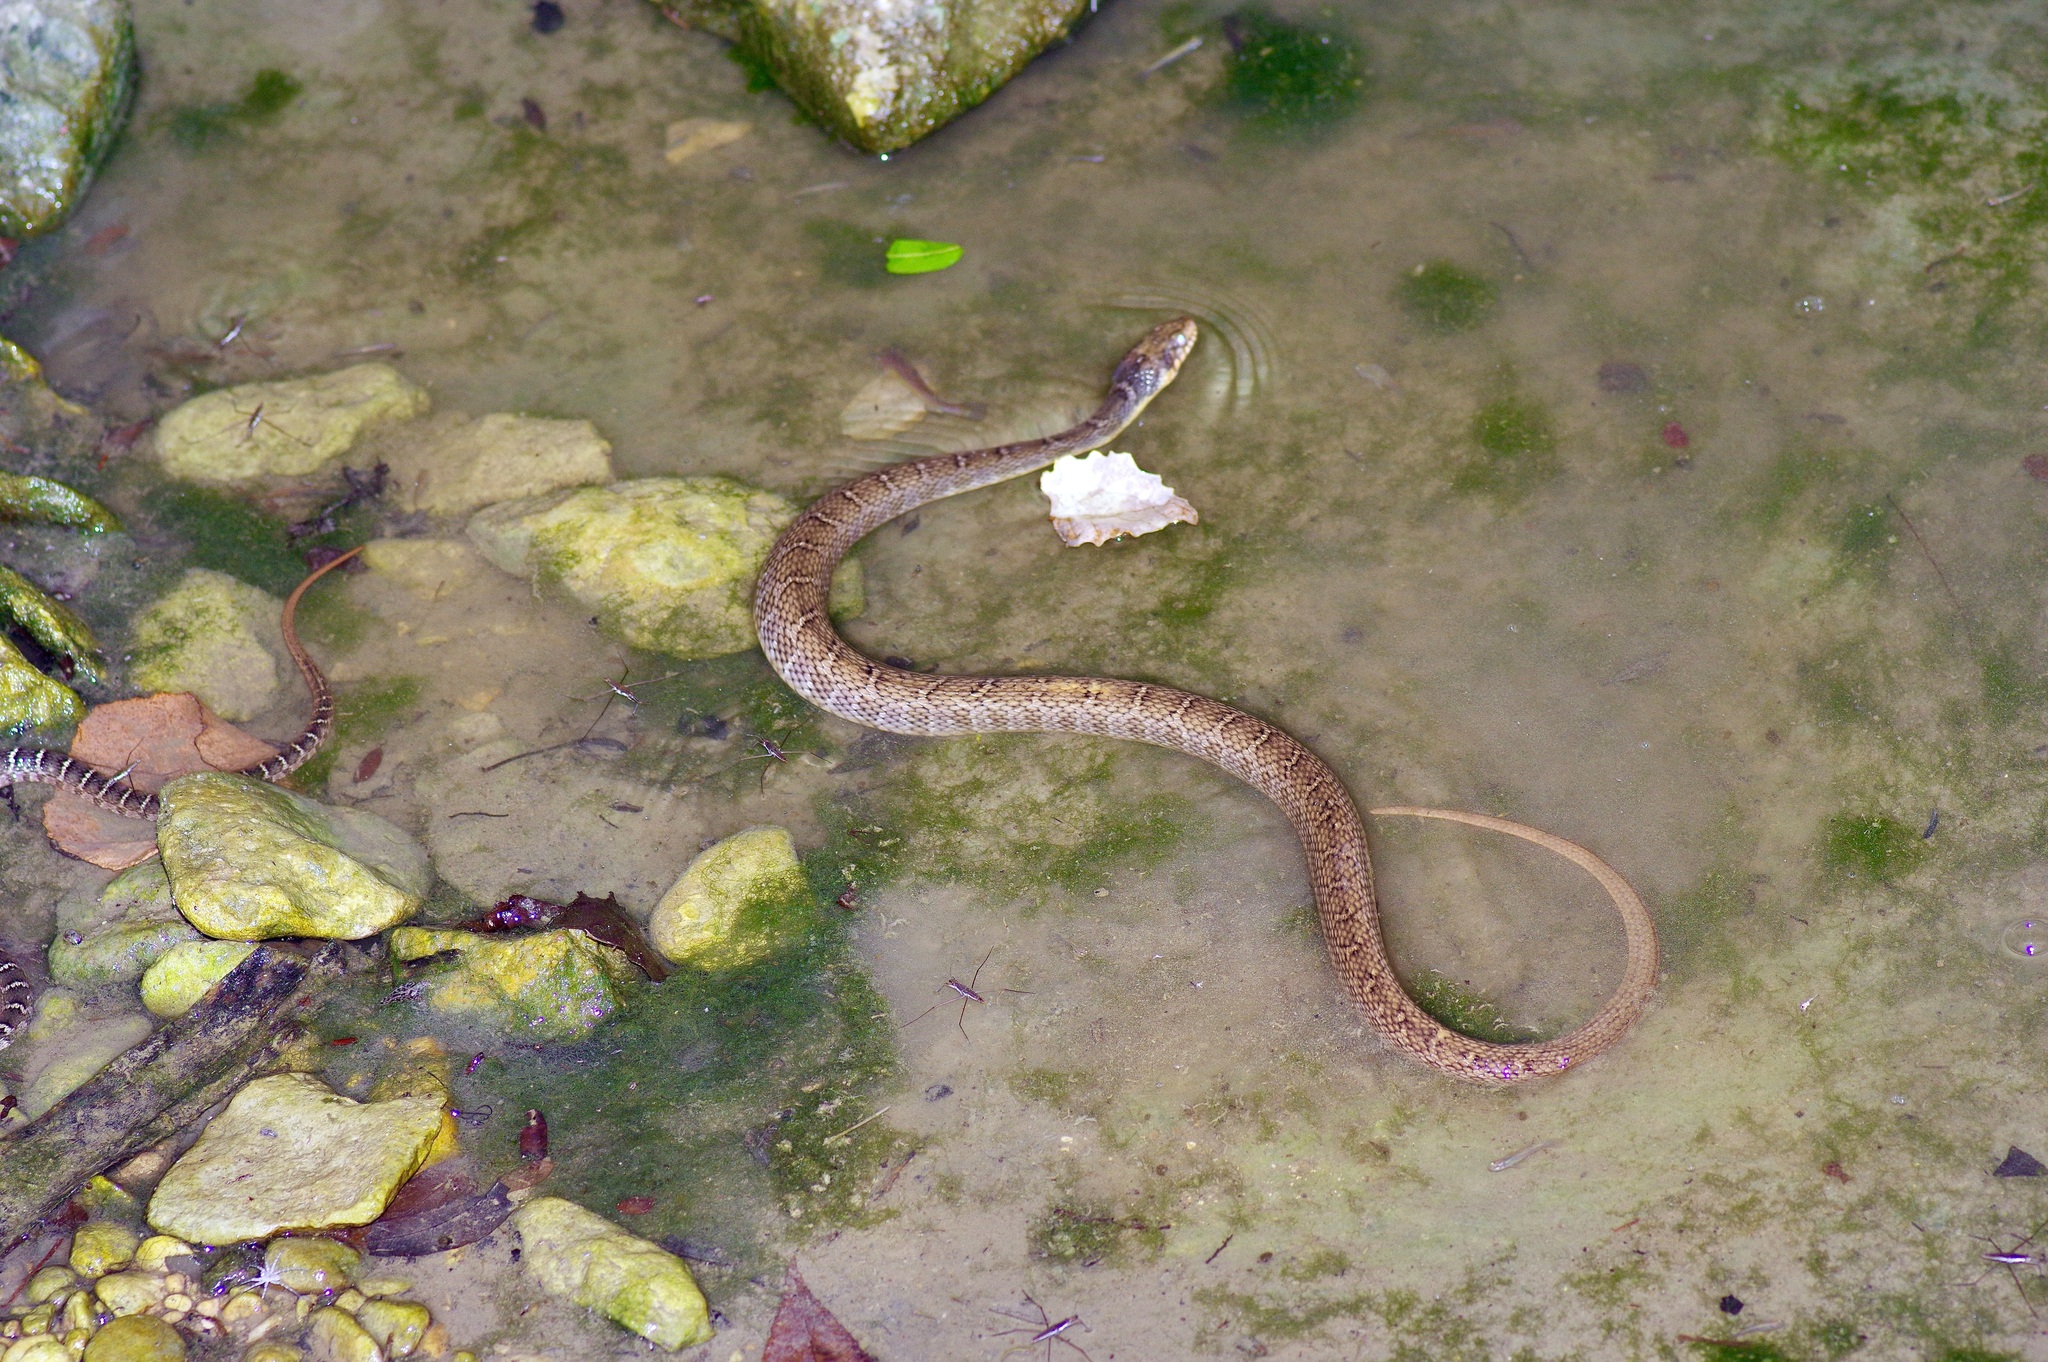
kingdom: Animalia
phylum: Chordata
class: Squamata
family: Colubridae
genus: Nerodia
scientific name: Nerodia erythrogaster
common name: Plainbelly water snake
